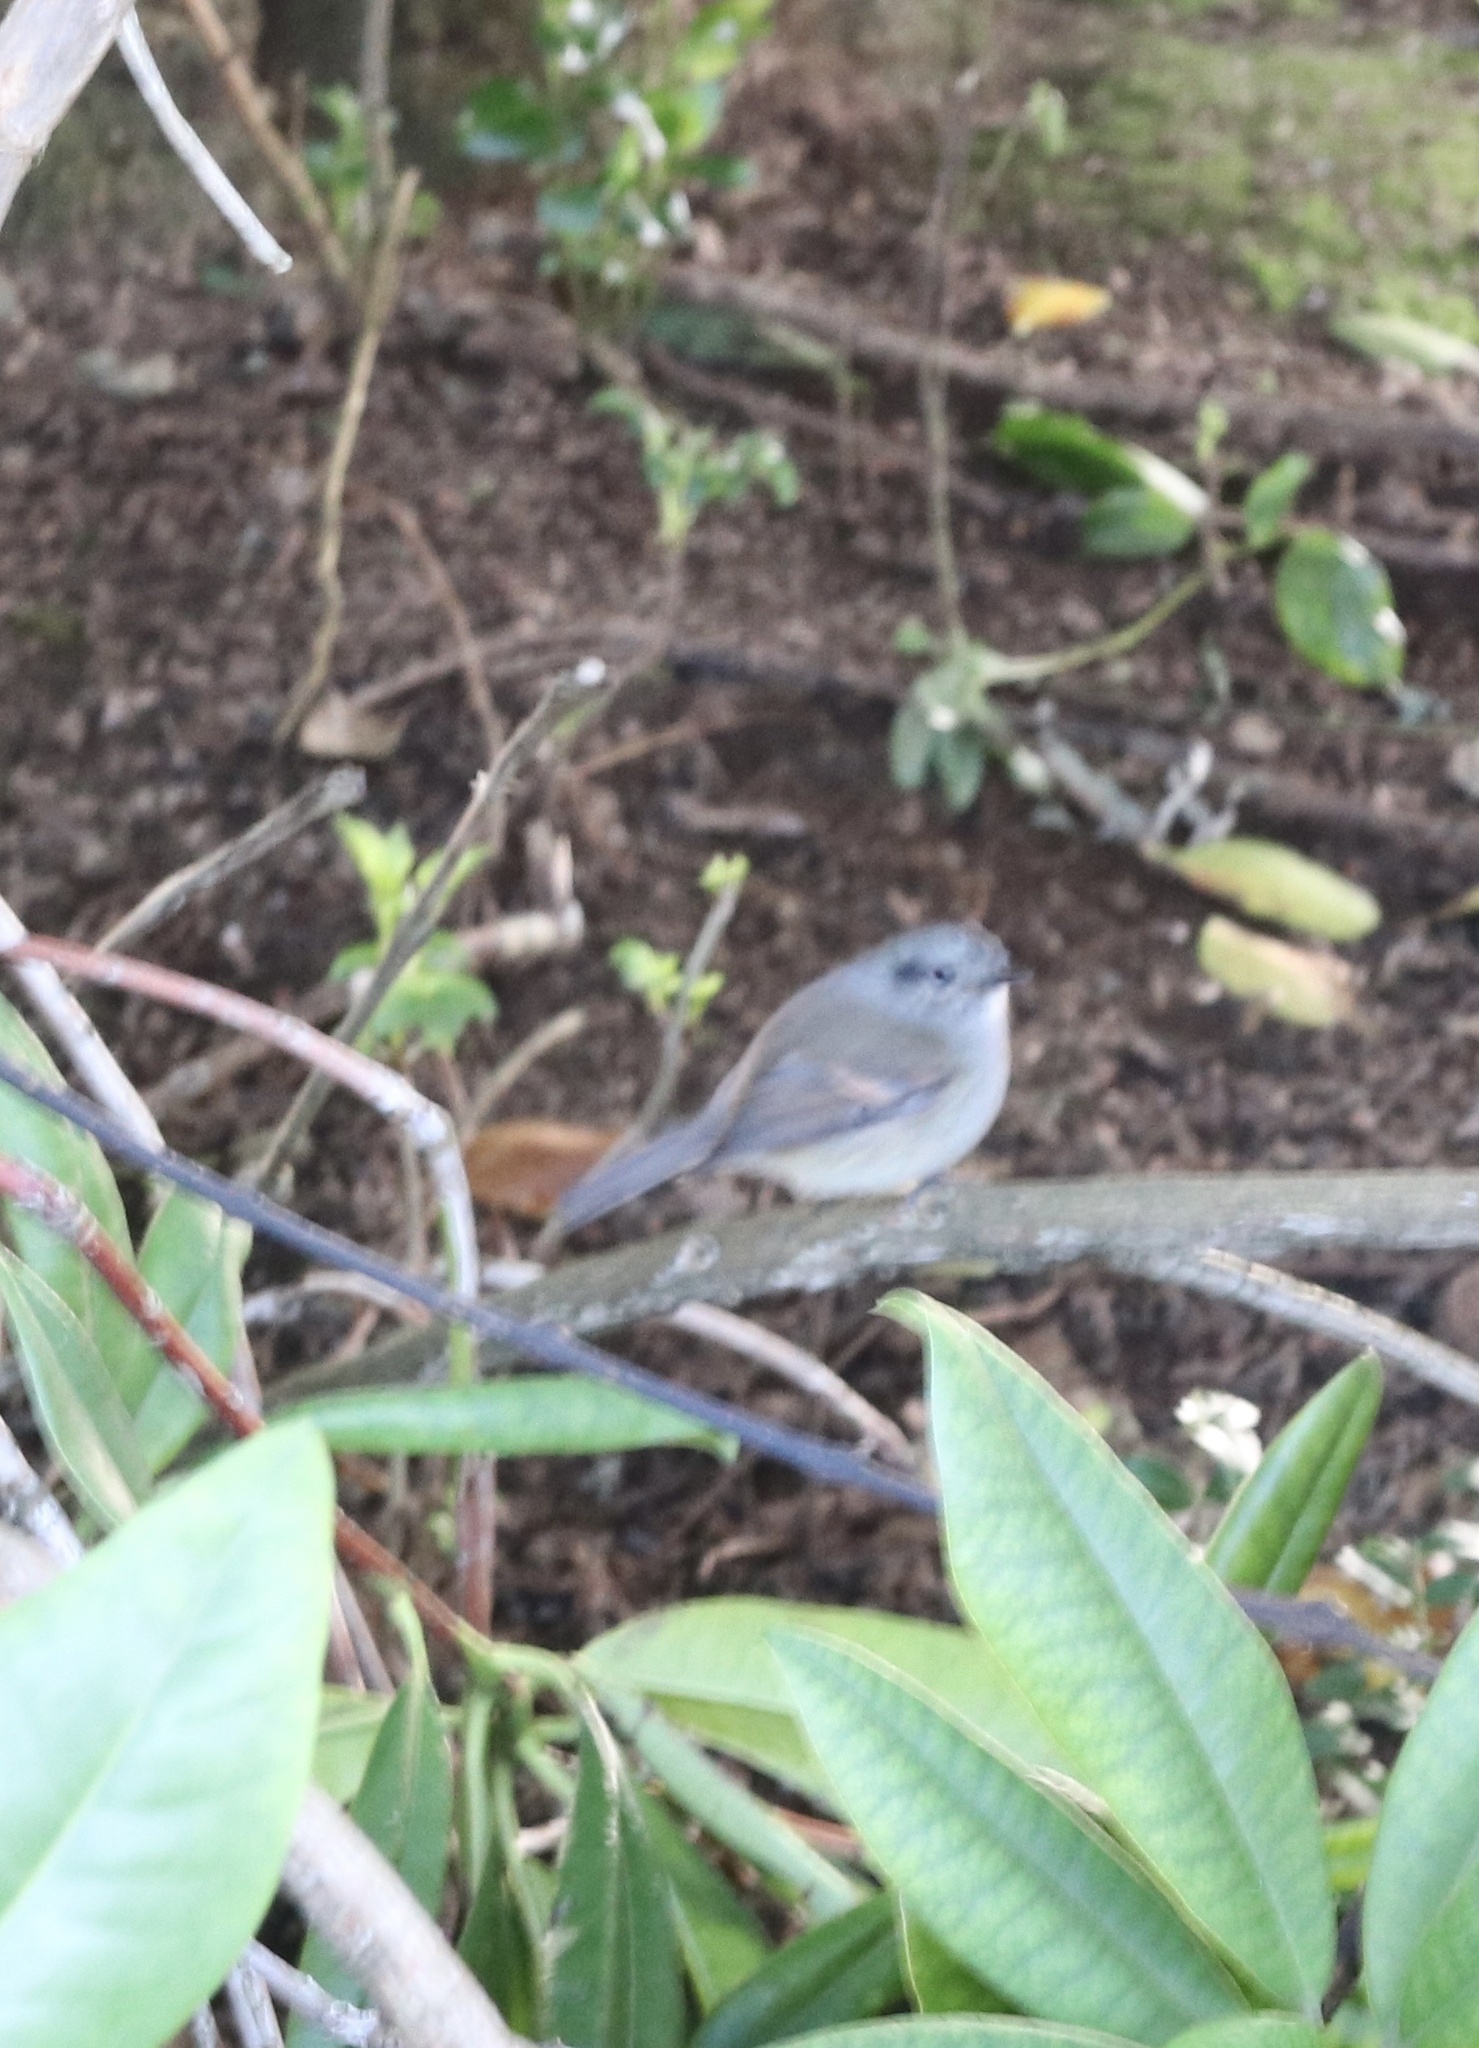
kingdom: Animalia
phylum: Chordata
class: Aves
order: Passeriformes
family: Tyrannidae
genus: Colorhamphus
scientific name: Colorhamphus parvirostris
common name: Patagonian tyrant
